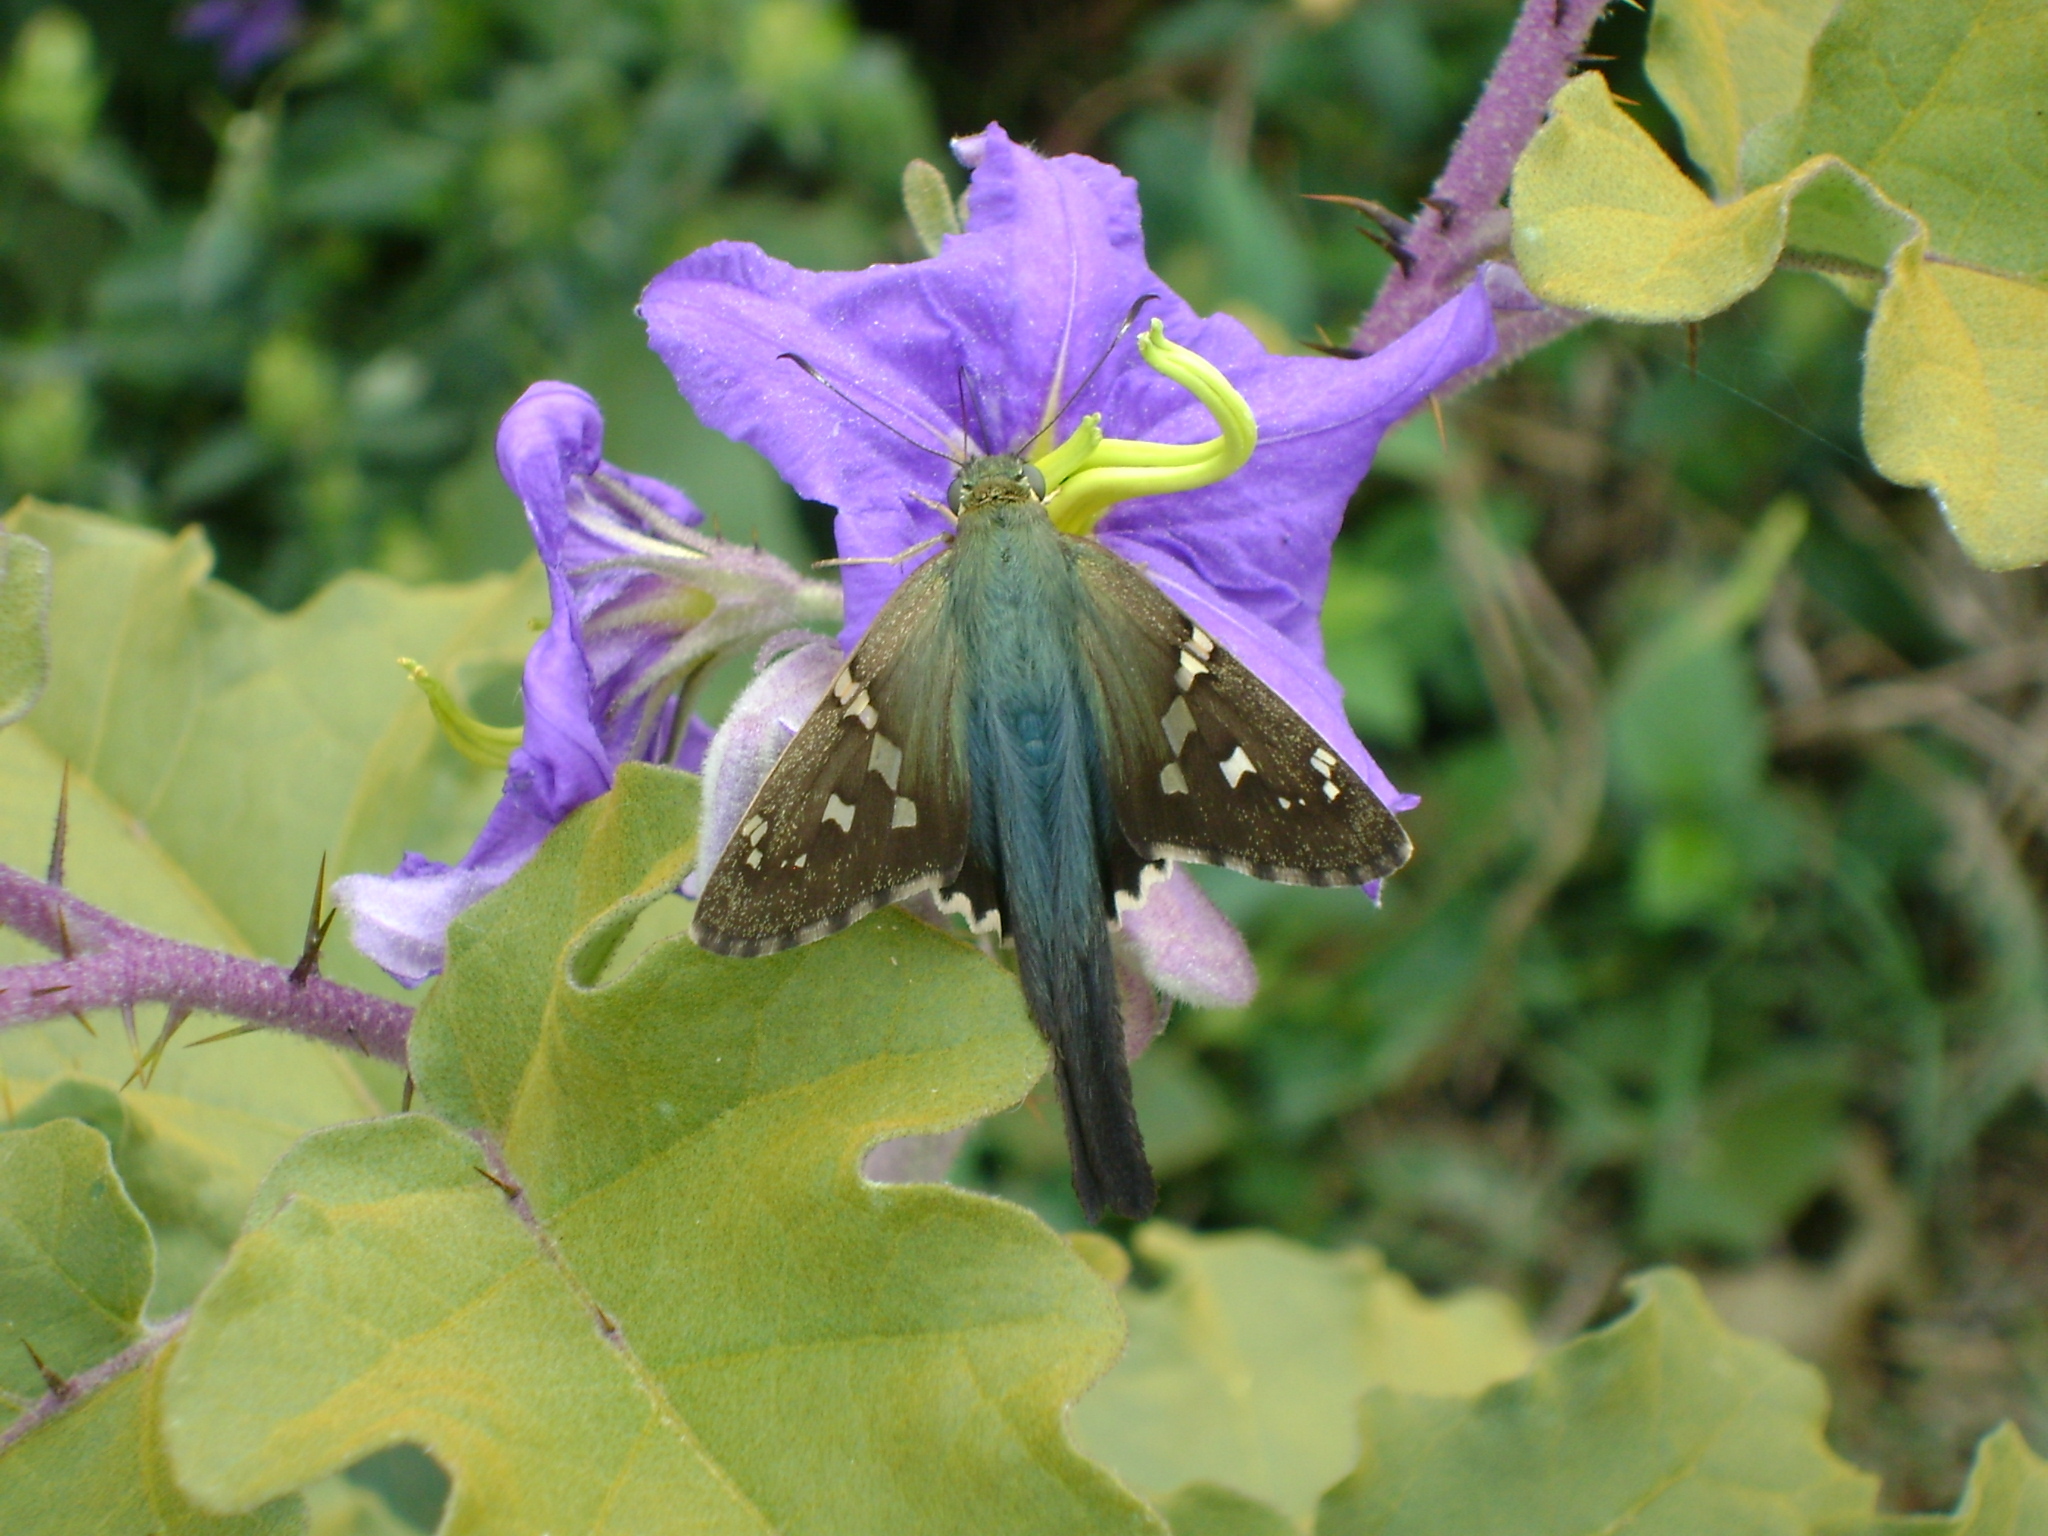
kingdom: Animalia
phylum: Arthropoda
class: Insecta
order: Lepidoptera
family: Hesperiidae
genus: Urbanus
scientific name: Urbanus proteus
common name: Long-tailed skipper
